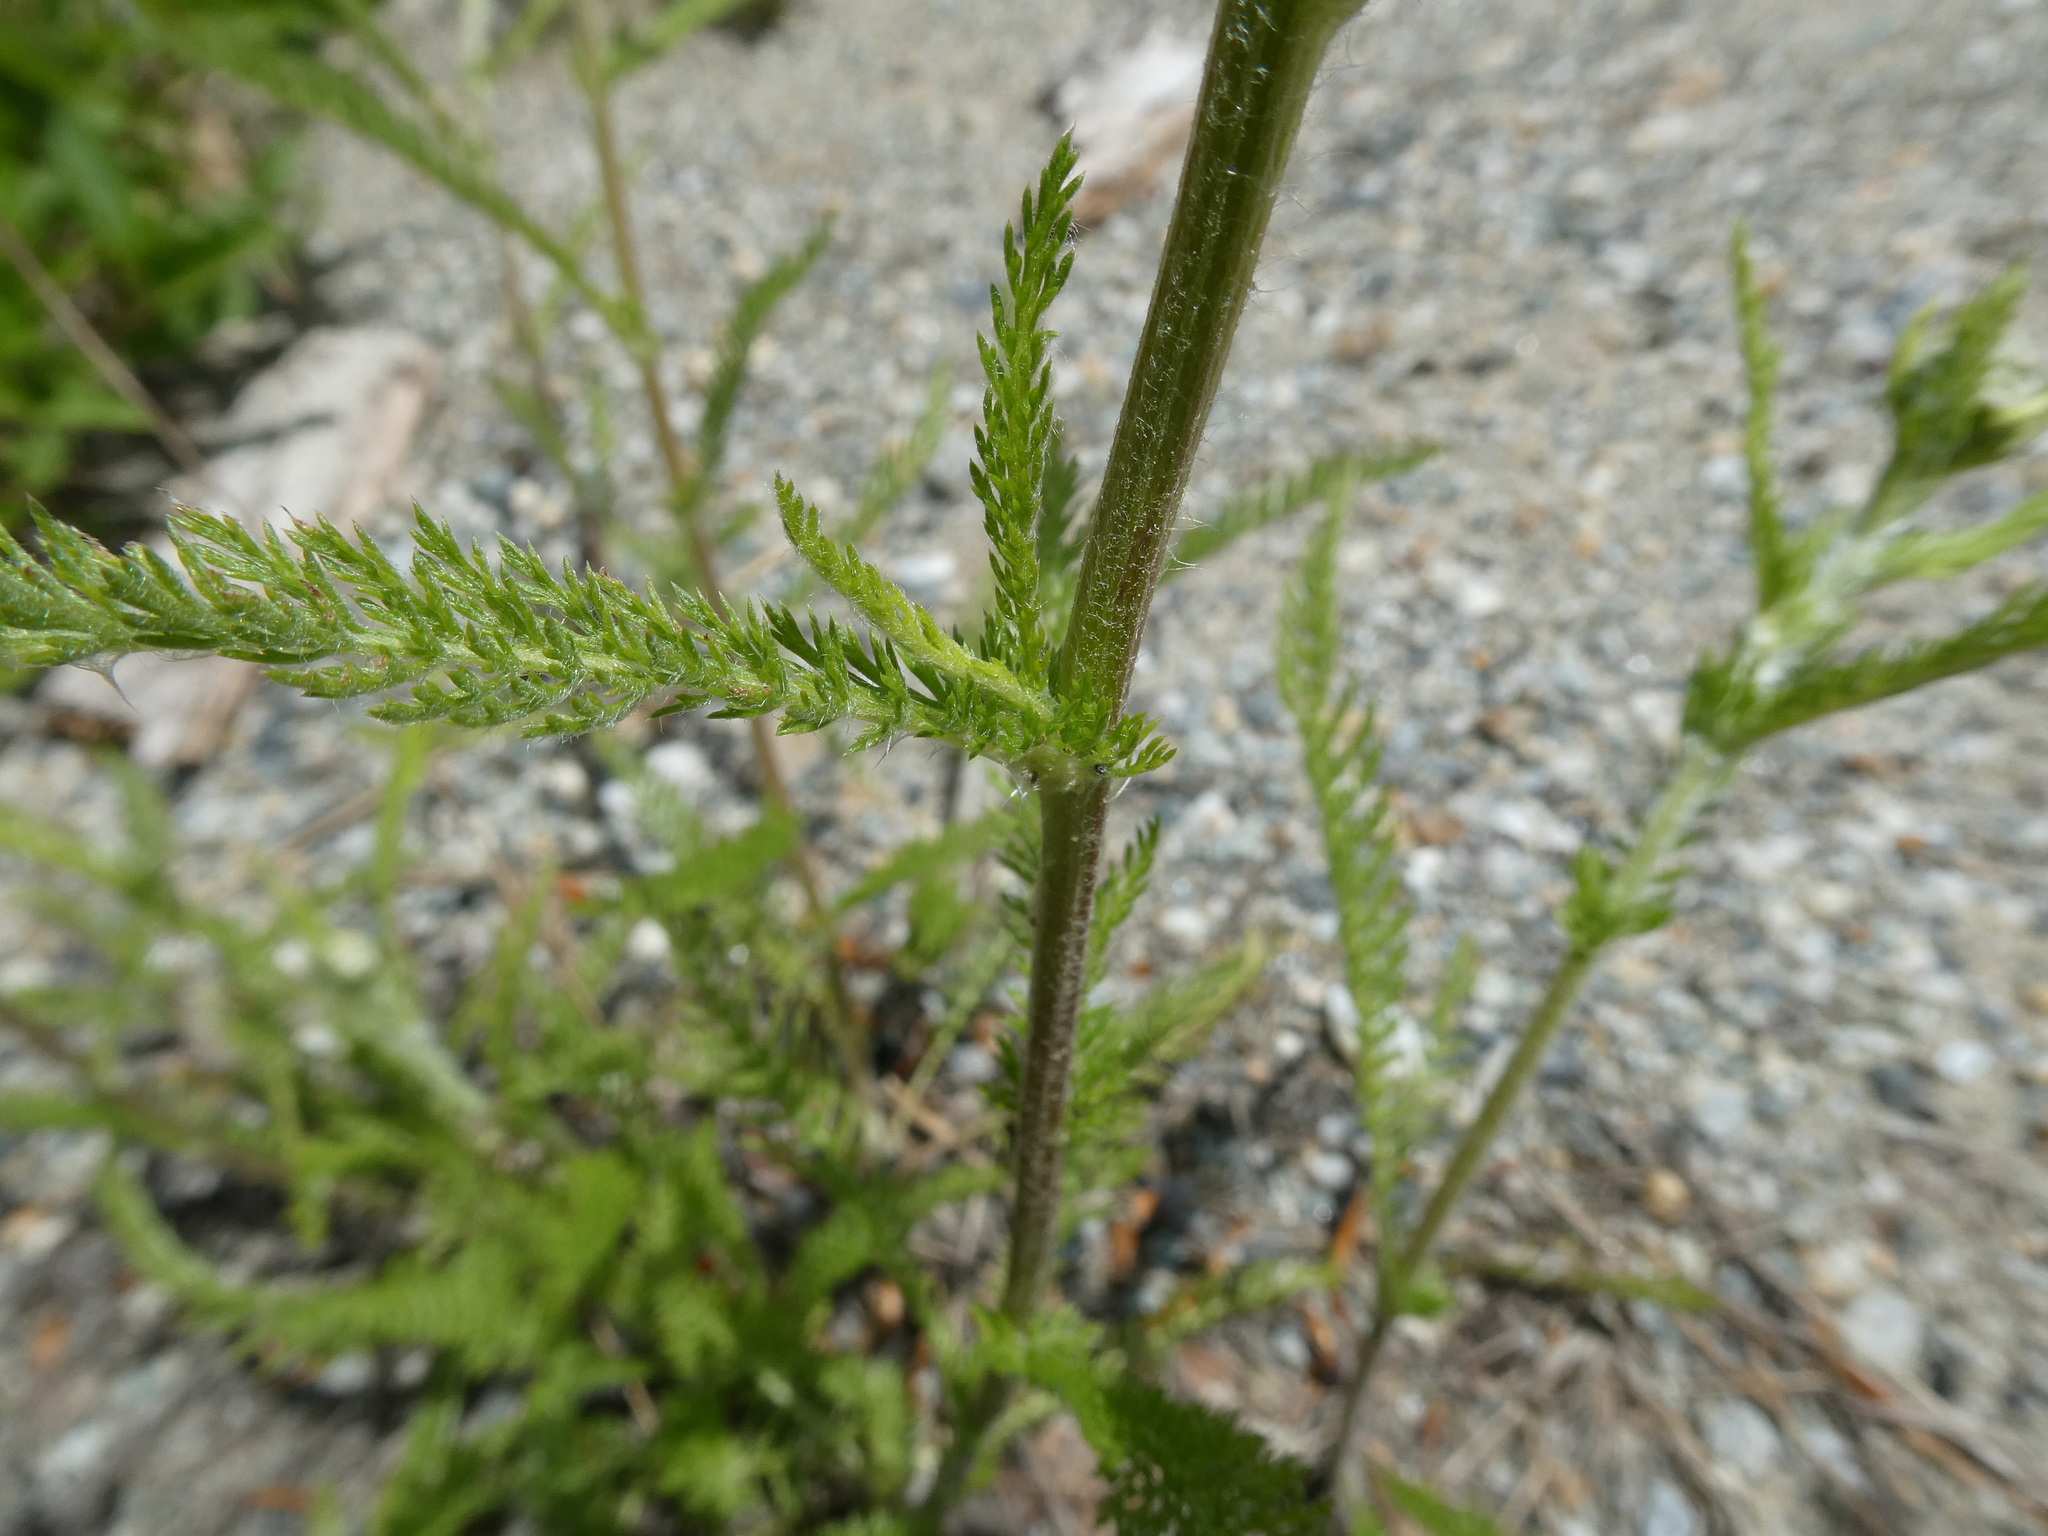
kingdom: Plantae
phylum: Tracheophyta
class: Magnoliopsida
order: Asterales
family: Asteraceae
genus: Achillea
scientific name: Achillea millefolium
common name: Yarrow
